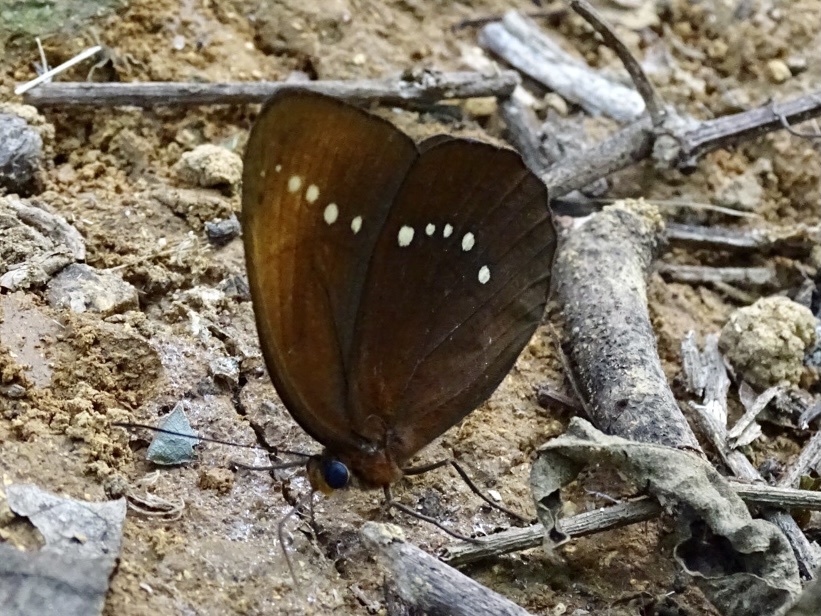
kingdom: Animalia
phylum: Arthropoda
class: Insecta
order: Lepidoptera
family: Nymphalidae
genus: Faunis
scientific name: Faunis eumeus
